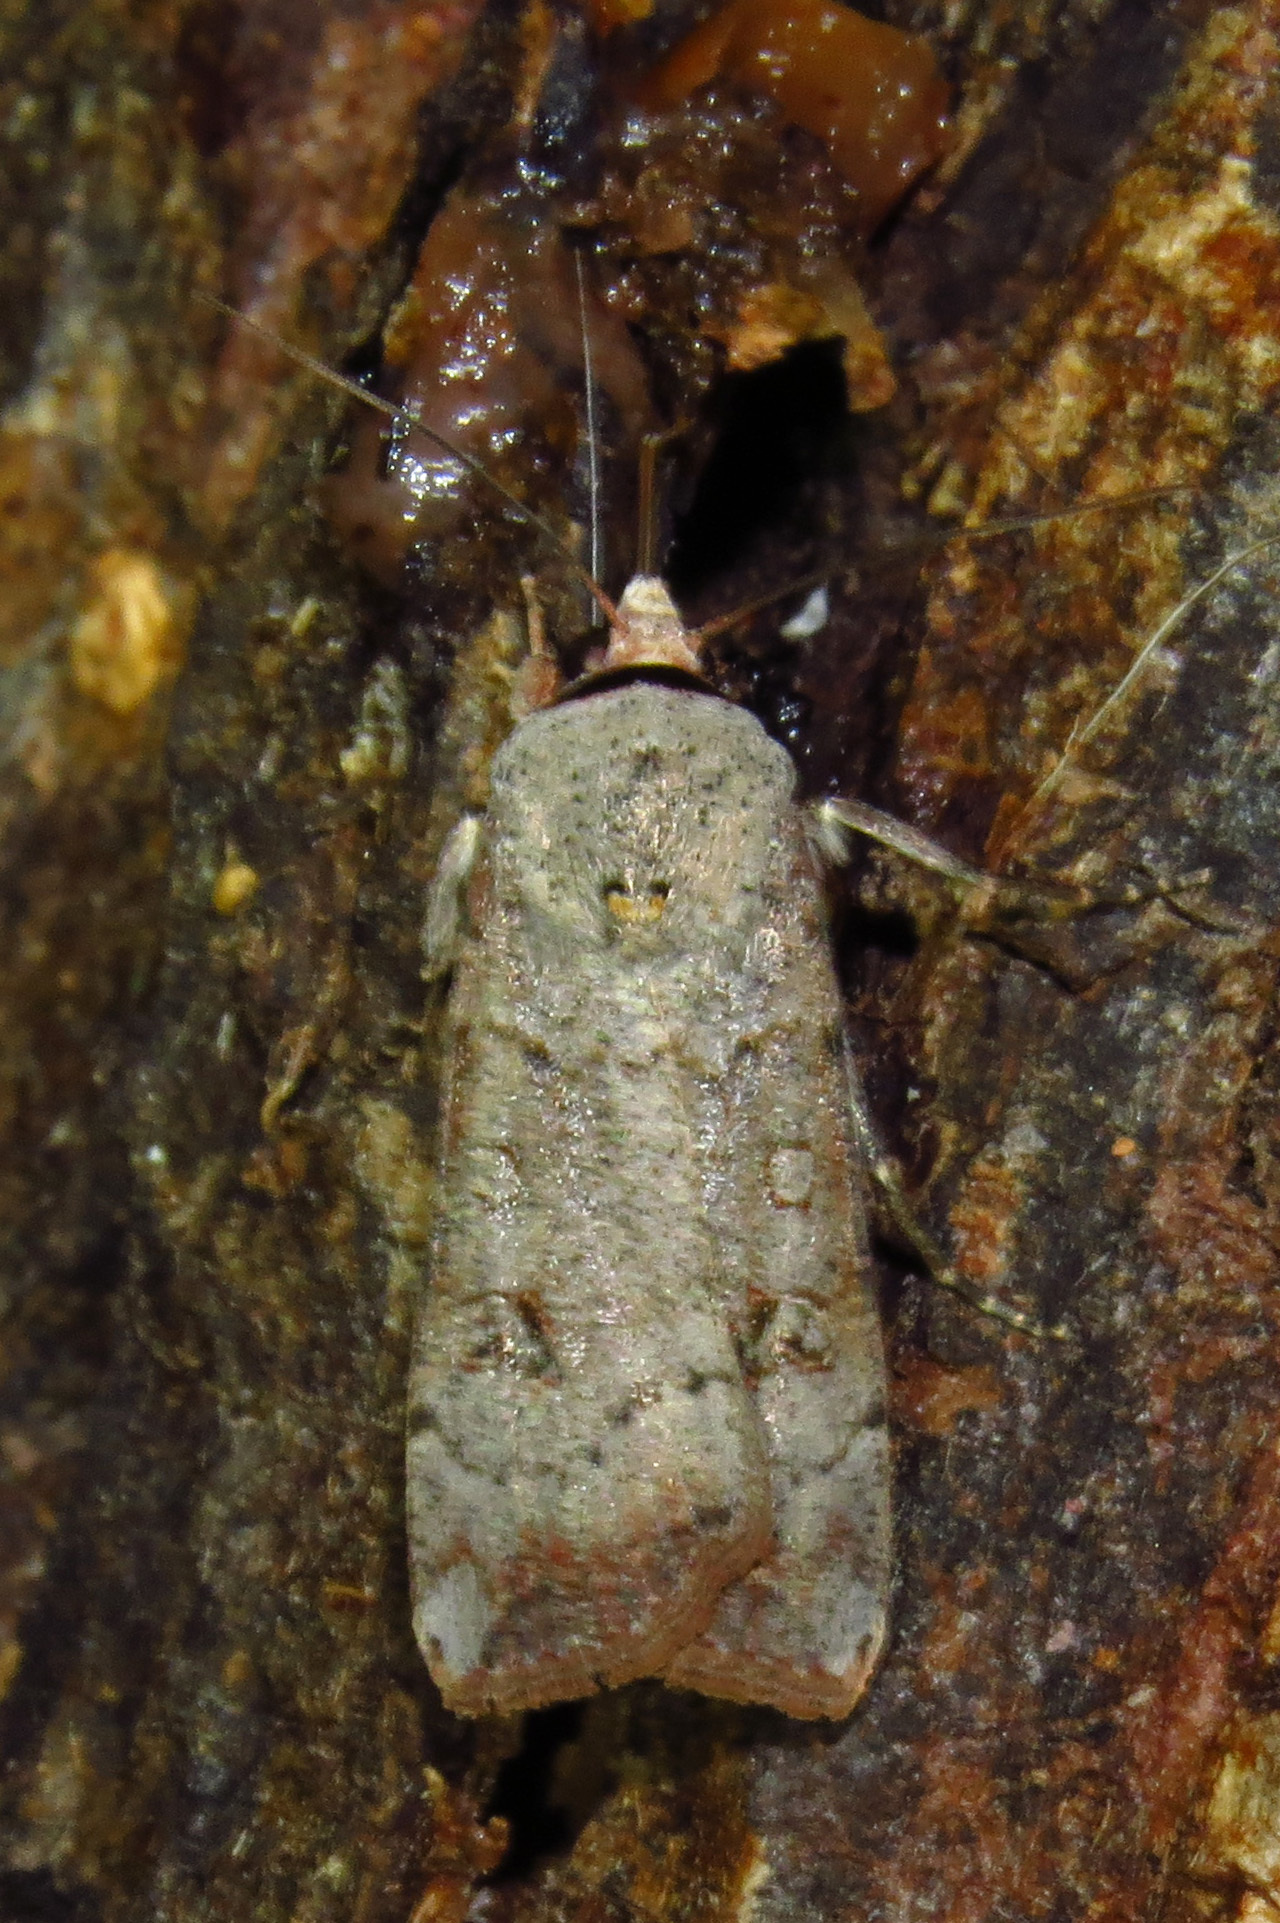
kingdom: Animalia
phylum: Arthropoda
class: Insecta
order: Lepidoptera
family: Noctuidae
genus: Anicla
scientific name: Anicla infecta
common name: Green cutworm
